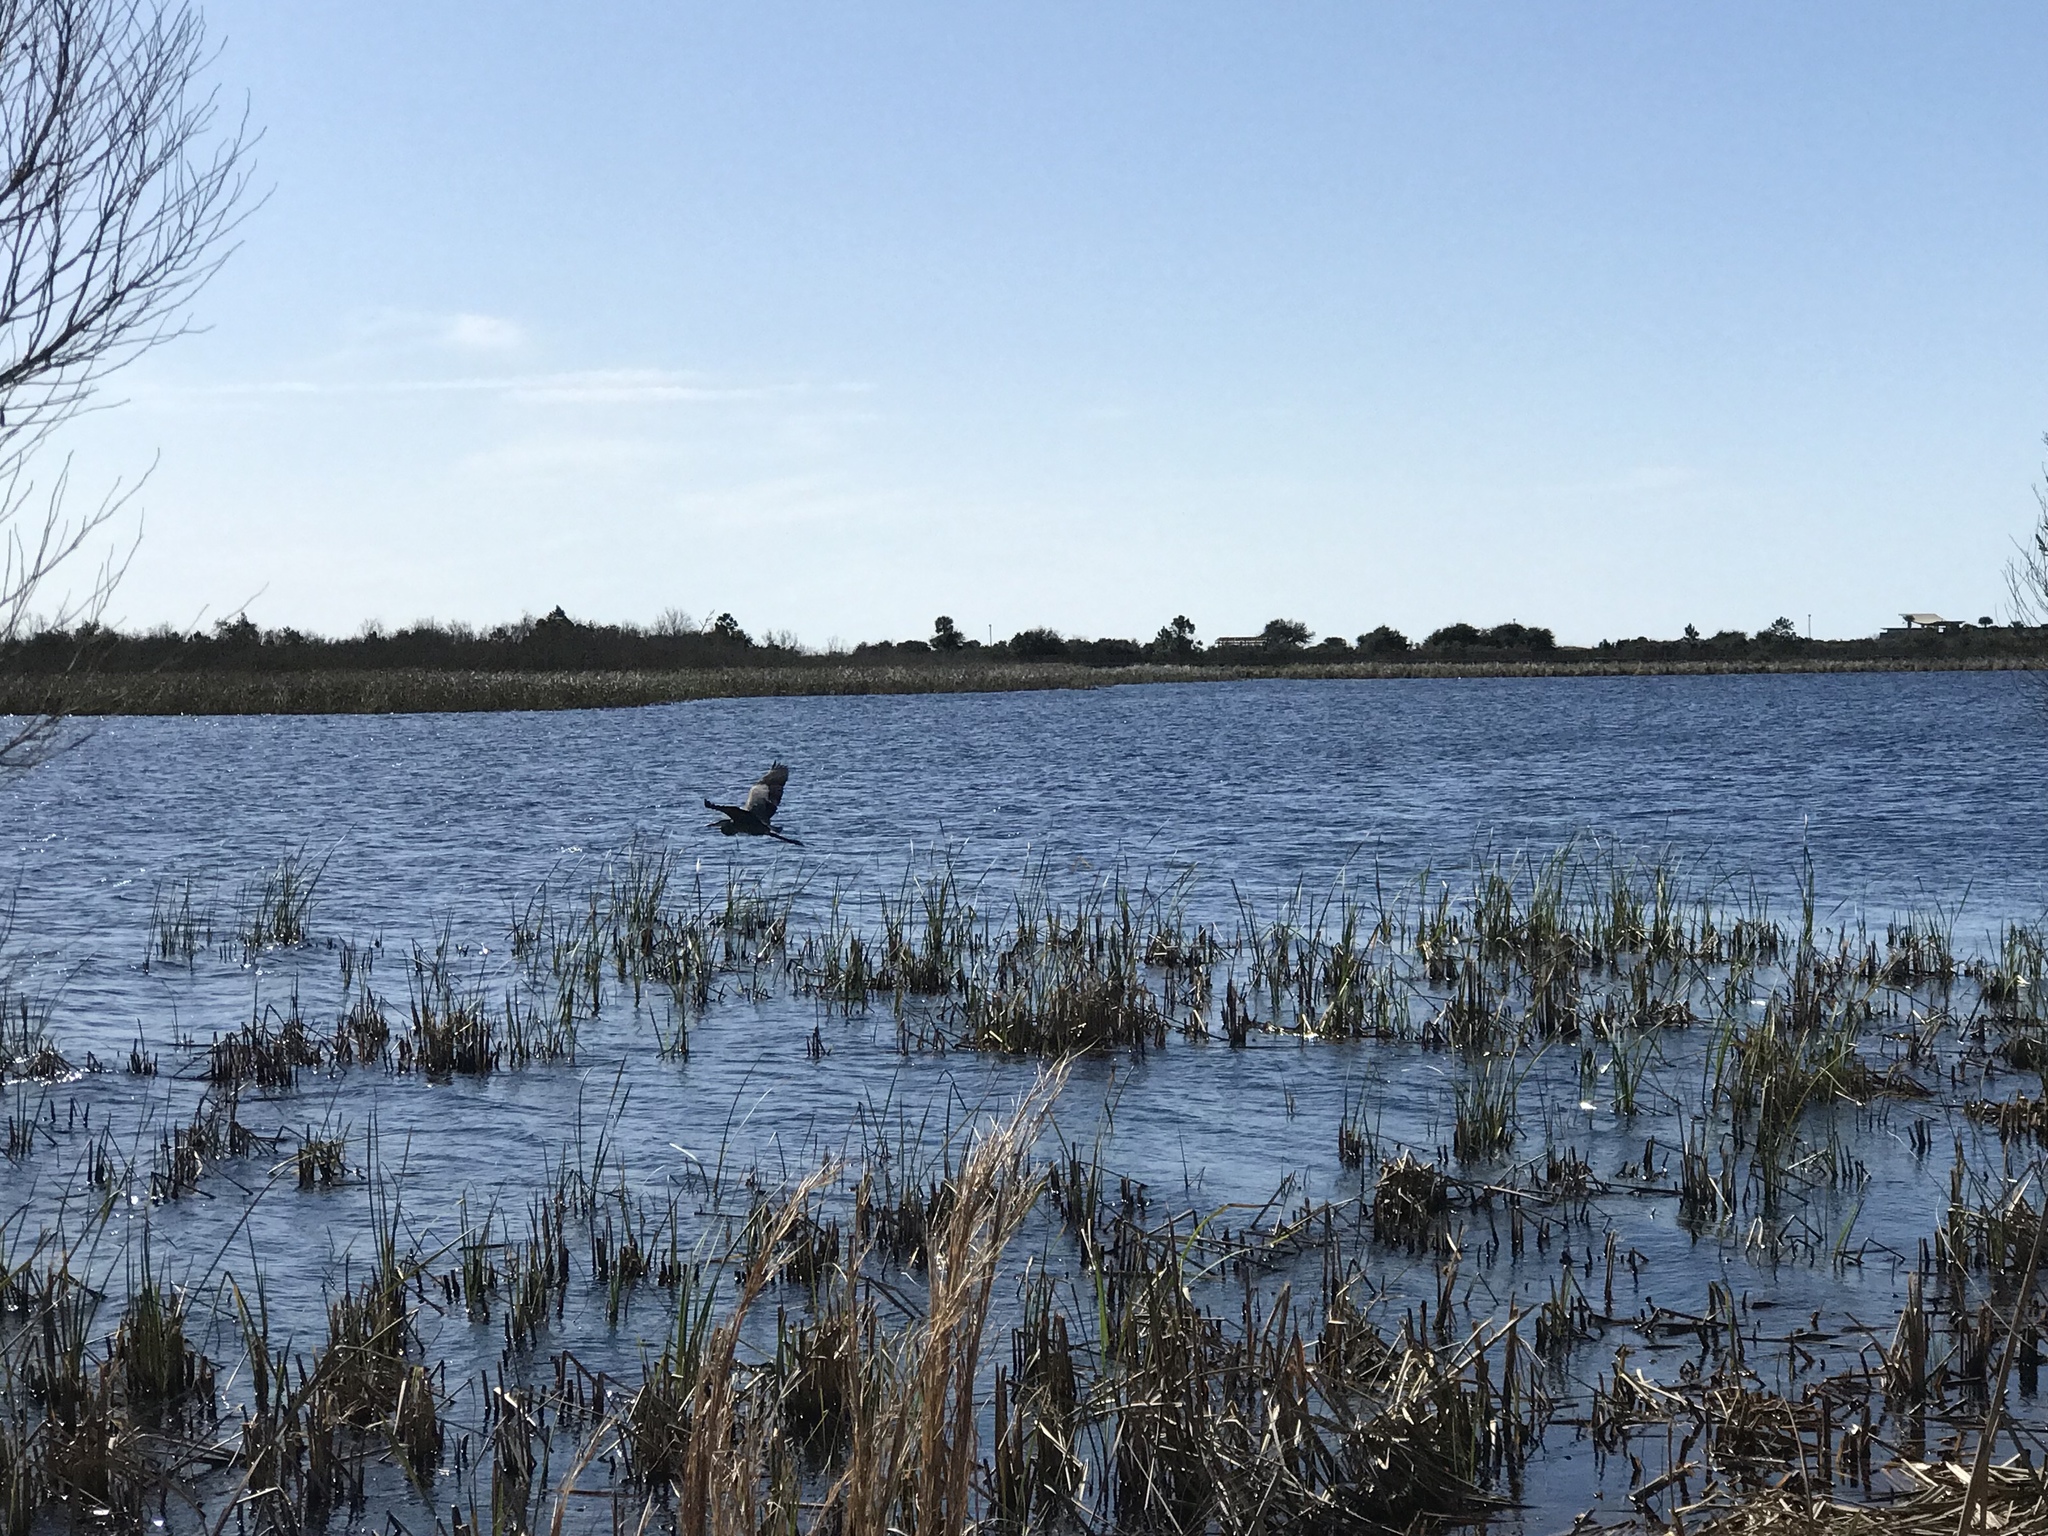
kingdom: Animalia
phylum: Chordata
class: Aves
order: Pelecaniformes
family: Ardeidae
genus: Ardea
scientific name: Ardea herodias
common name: Great blue heron
